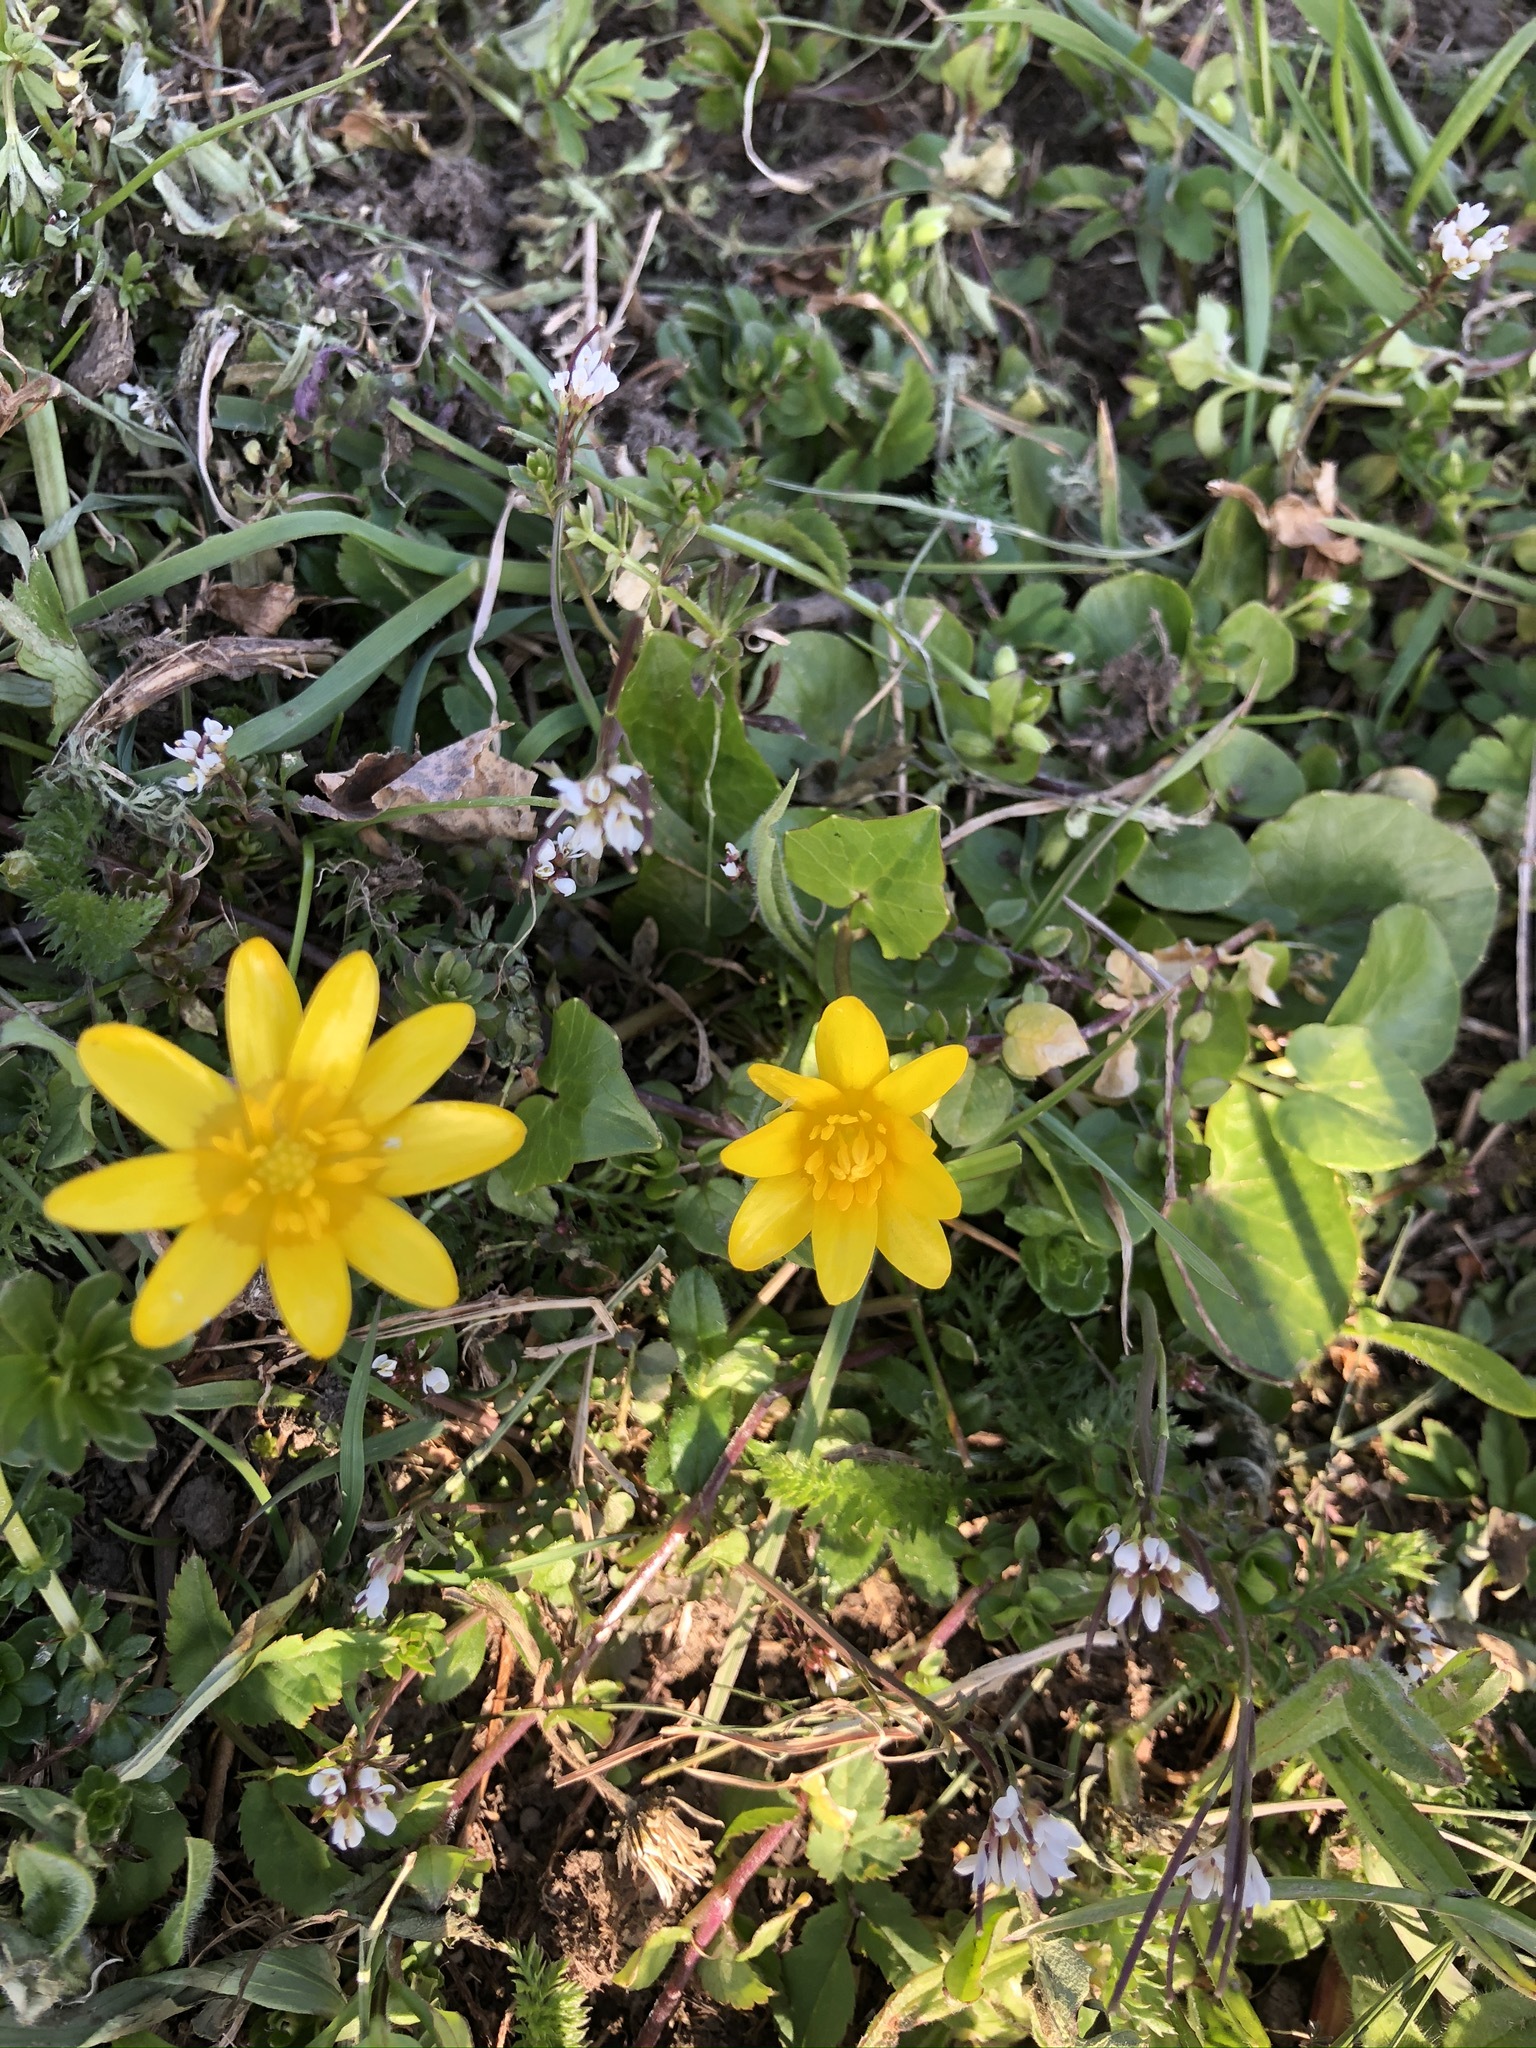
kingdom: Plantae
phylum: Tracheophyta
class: Magnoliopsida
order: Ranunculales
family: Ranunculaceae
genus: Ficaria
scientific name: Ficaria verna
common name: Lesser celandine
